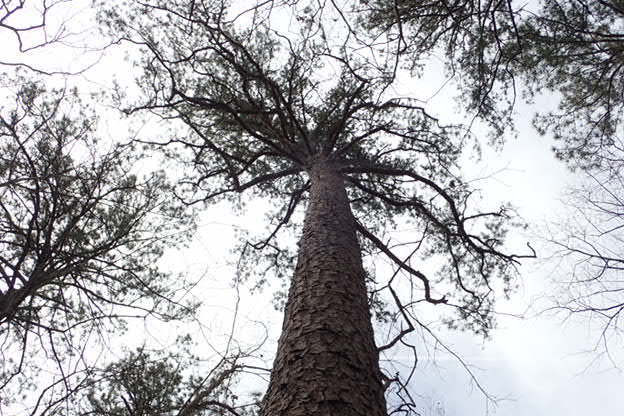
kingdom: Plantae
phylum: Tracheophyta
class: Pinopsida
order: Pinales
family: Pinaceae
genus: Pinus
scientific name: Pinus echinata
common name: Shortleaf pine
